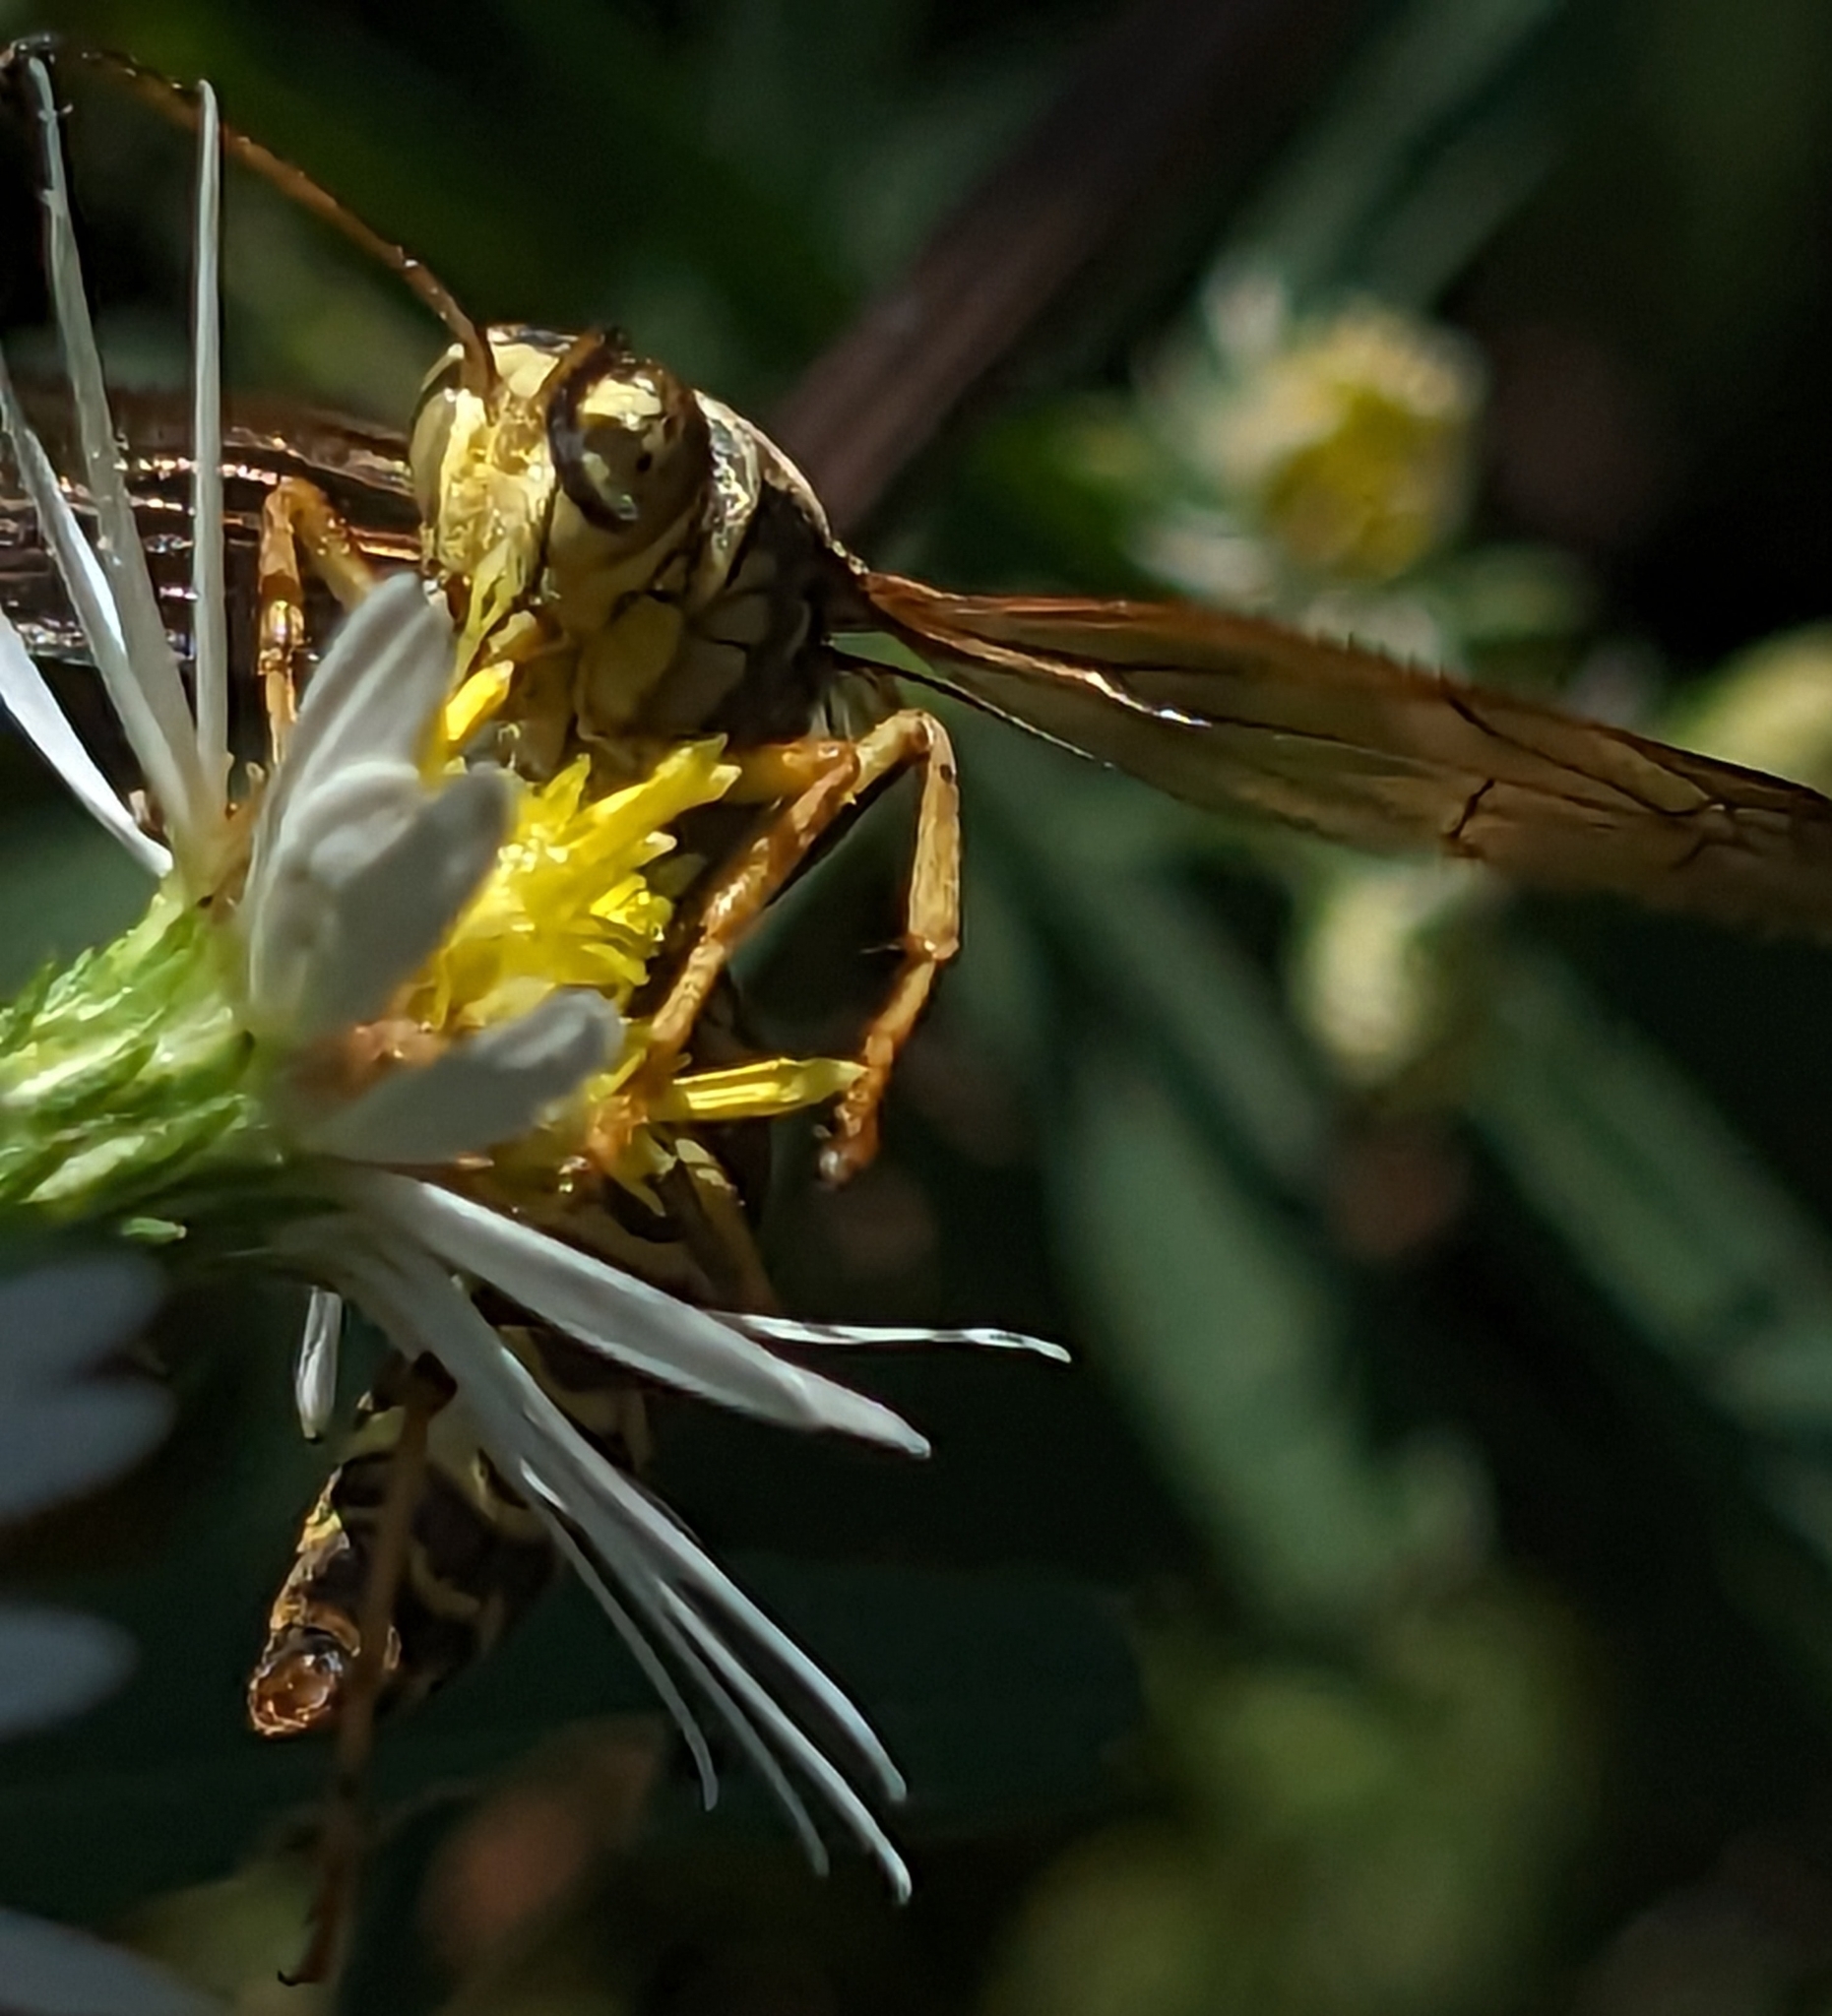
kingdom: Animalia
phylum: Arthropoda
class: Insecta
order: Hymenoptera
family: Eumenidae
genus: Polistes
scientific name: Polistes fuscatus
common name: Dark paper wasp
